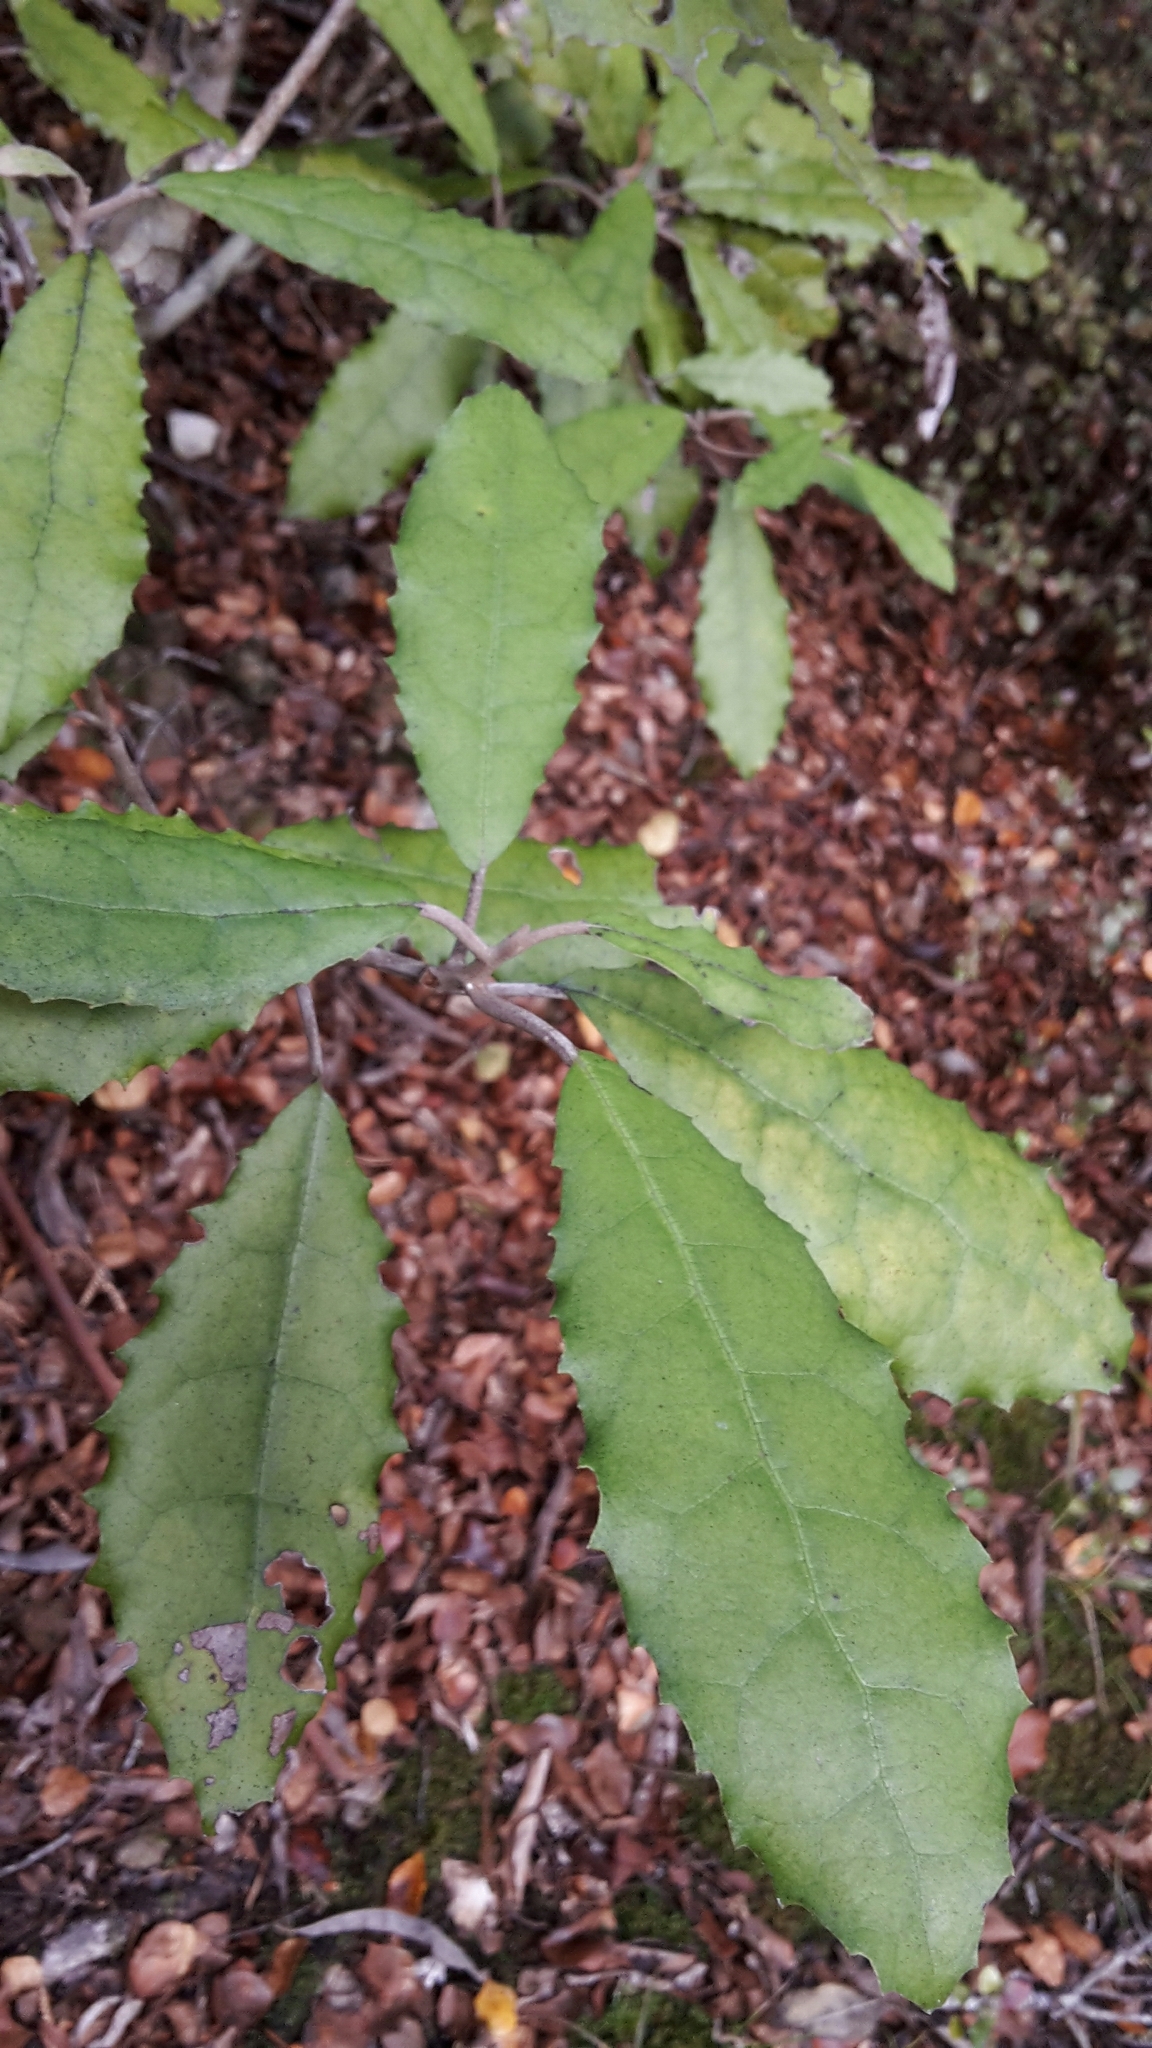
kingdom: Plantae
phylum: Tracheophyta
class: Magnoliopsida
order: Asterales
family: Asteraceae
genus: Olearia
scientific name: Olearia rani
